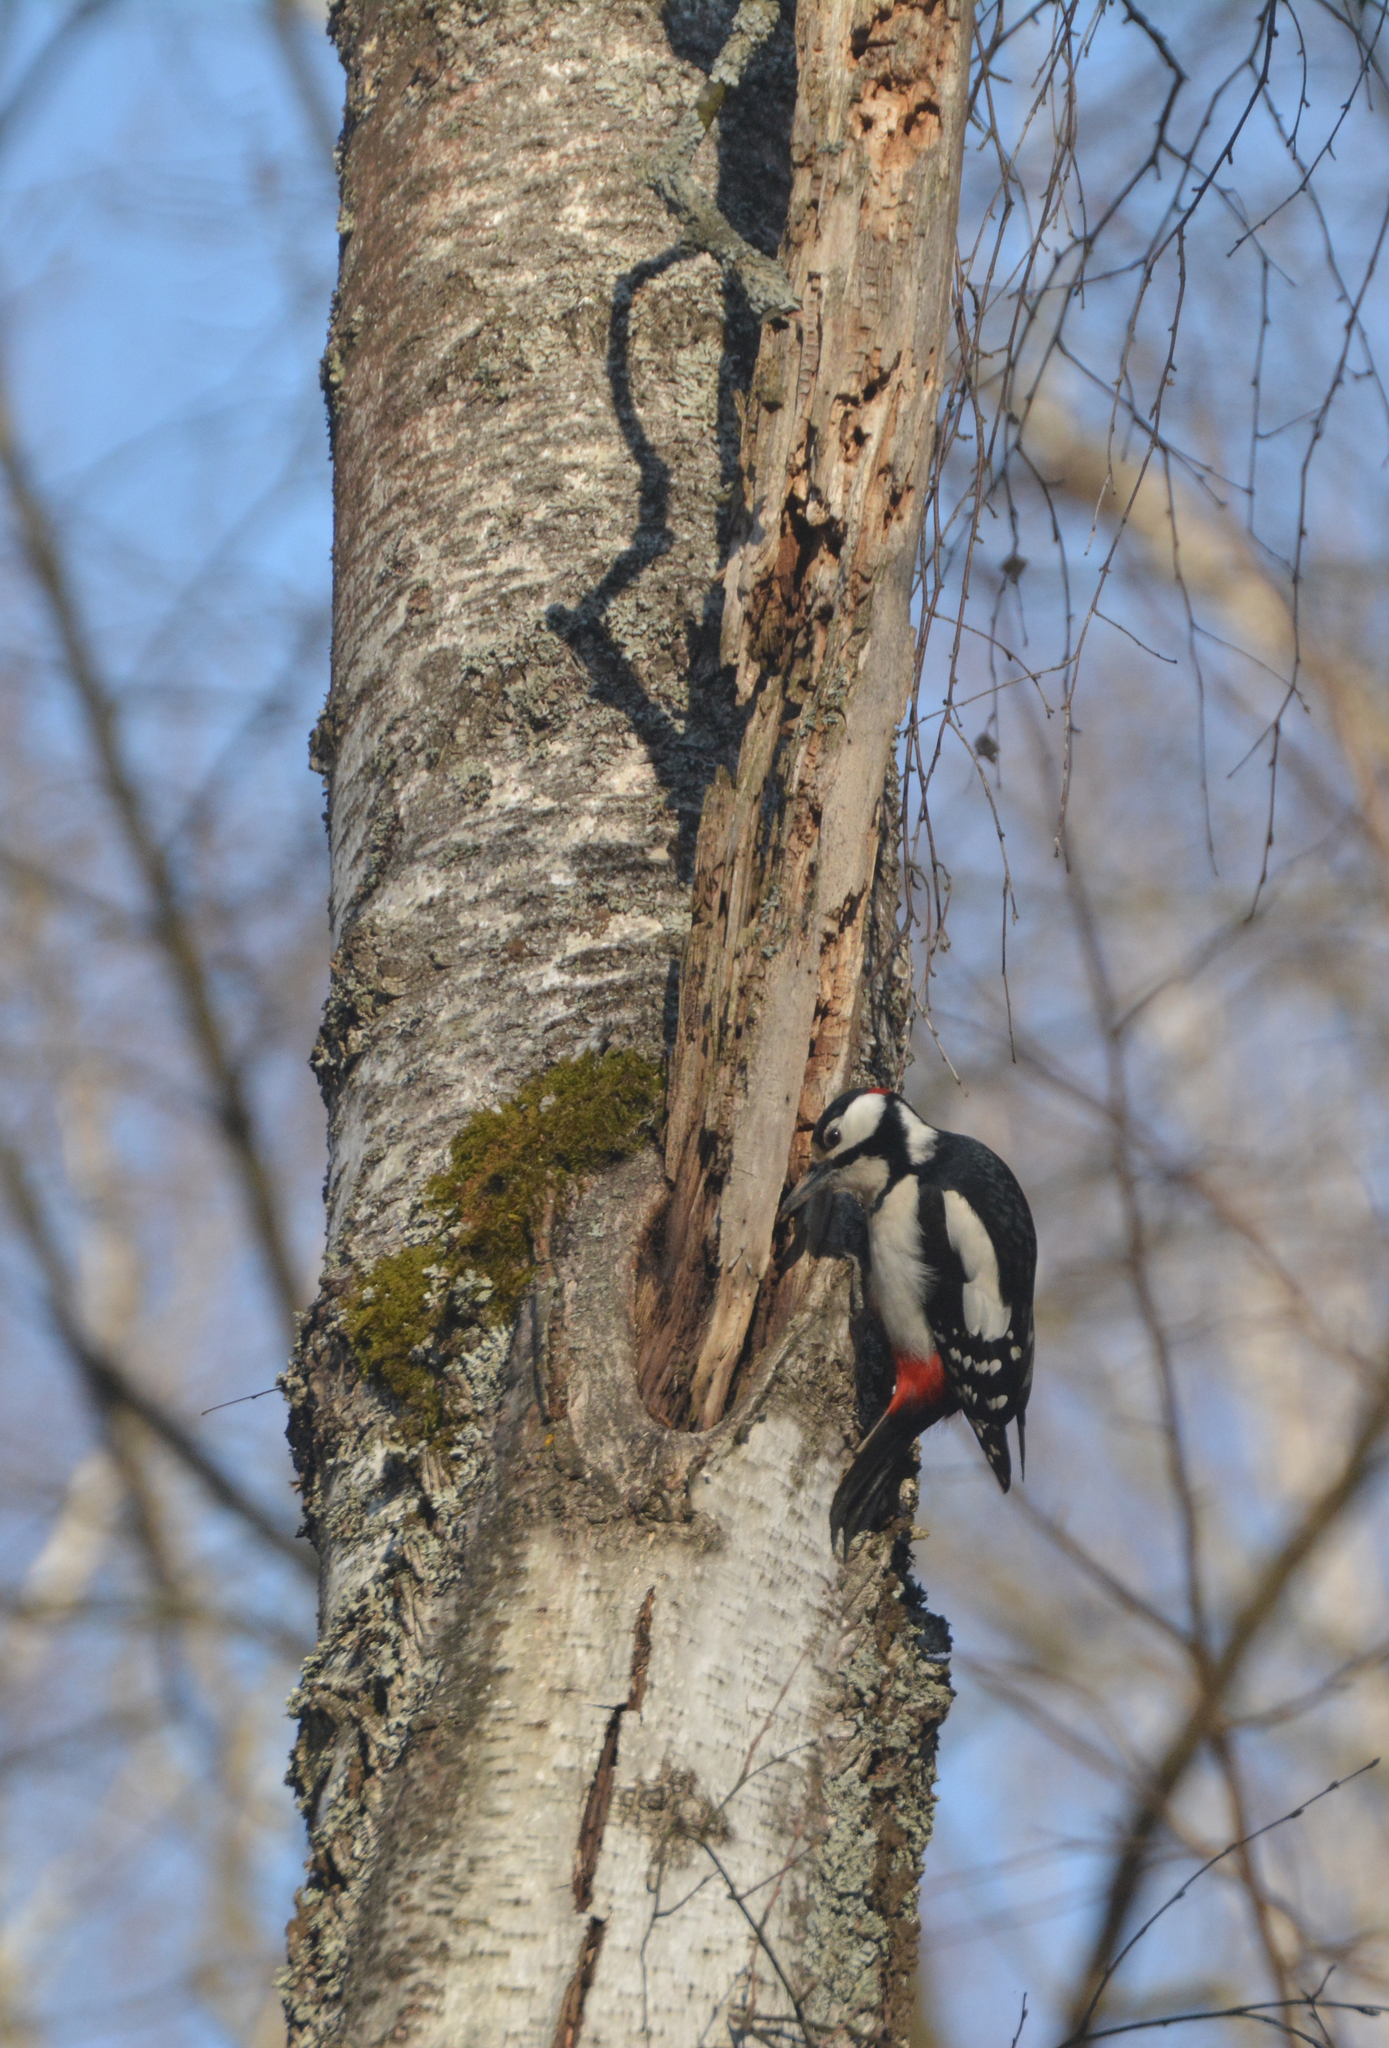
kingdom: Animalia
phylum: Chordata
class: Aves
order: Piciformes
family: Picidae
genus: Dendrocopos
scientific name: Dendrocopos major
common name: Great spotted woodpecker
